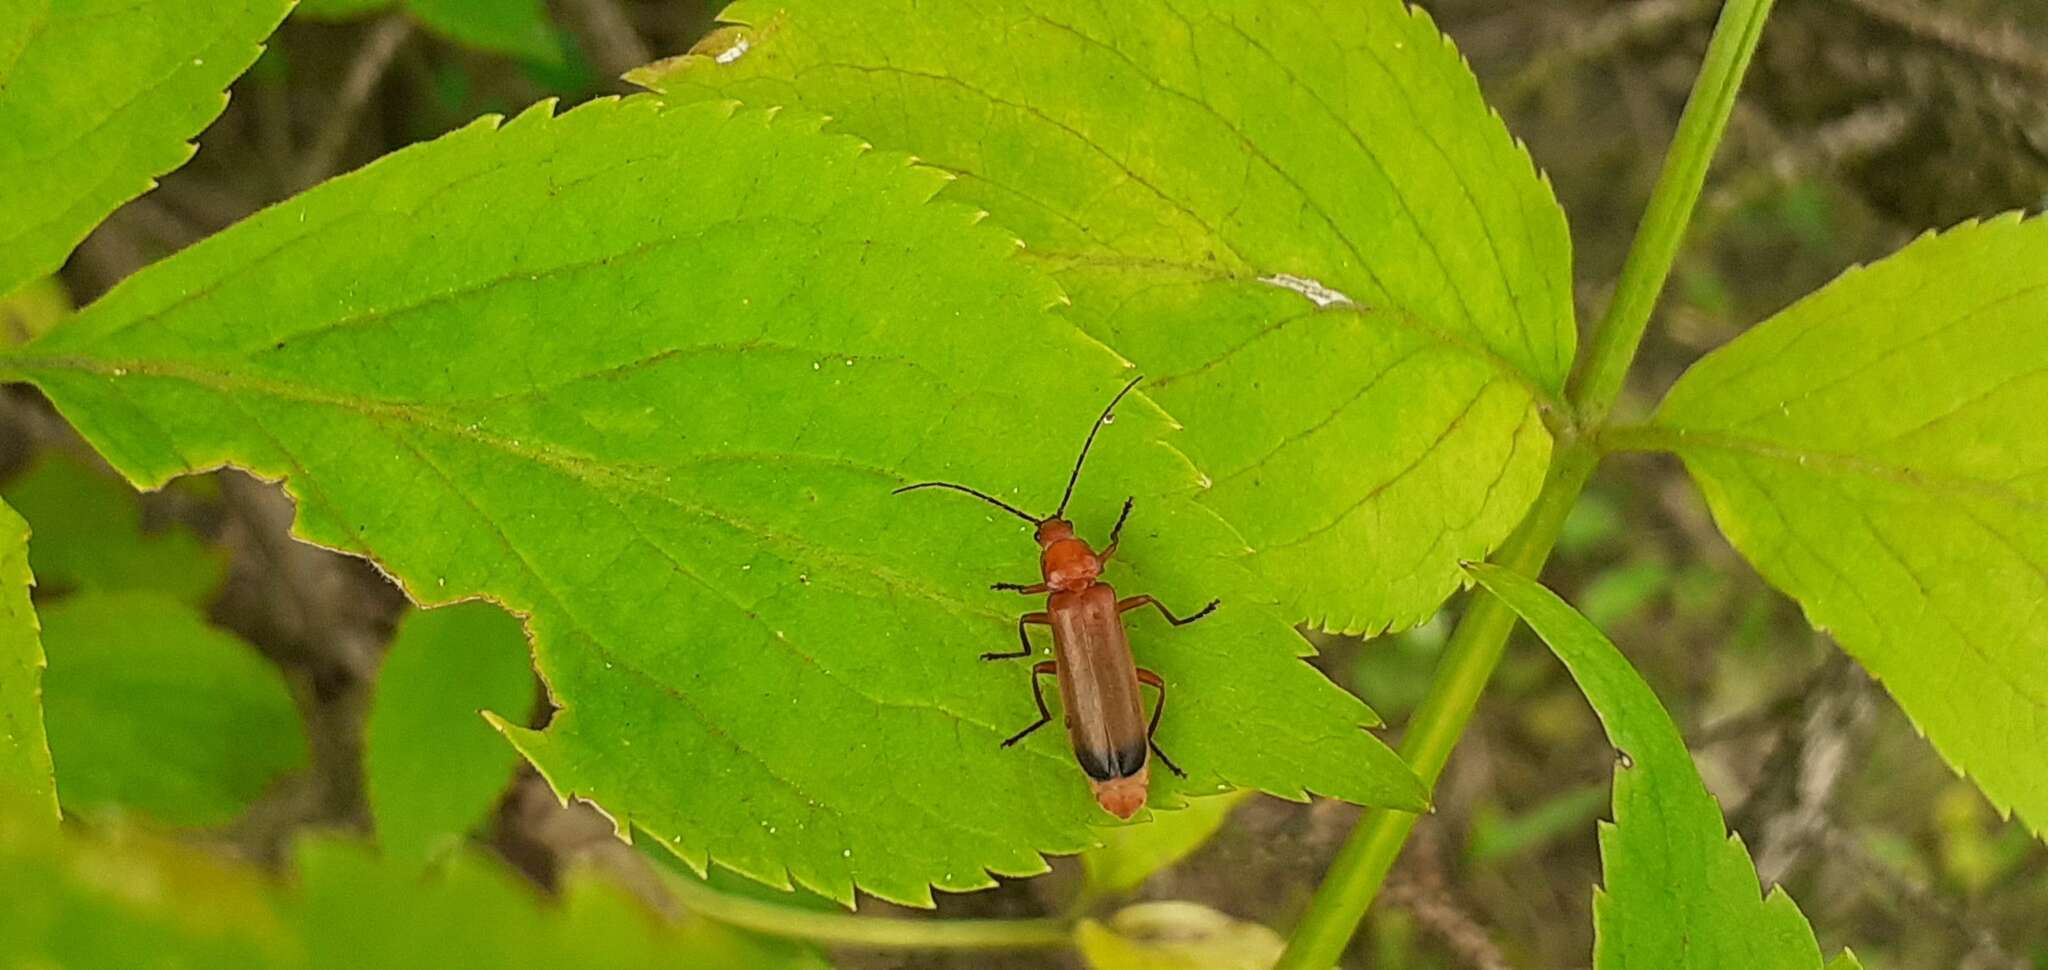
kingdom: Animalia
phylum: Arthropoda
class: Insecta
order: Coleoptera
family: Cantharidae
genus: Rhagonycha
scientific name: Rhagonycha fulva
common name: Common red soldier beetle
